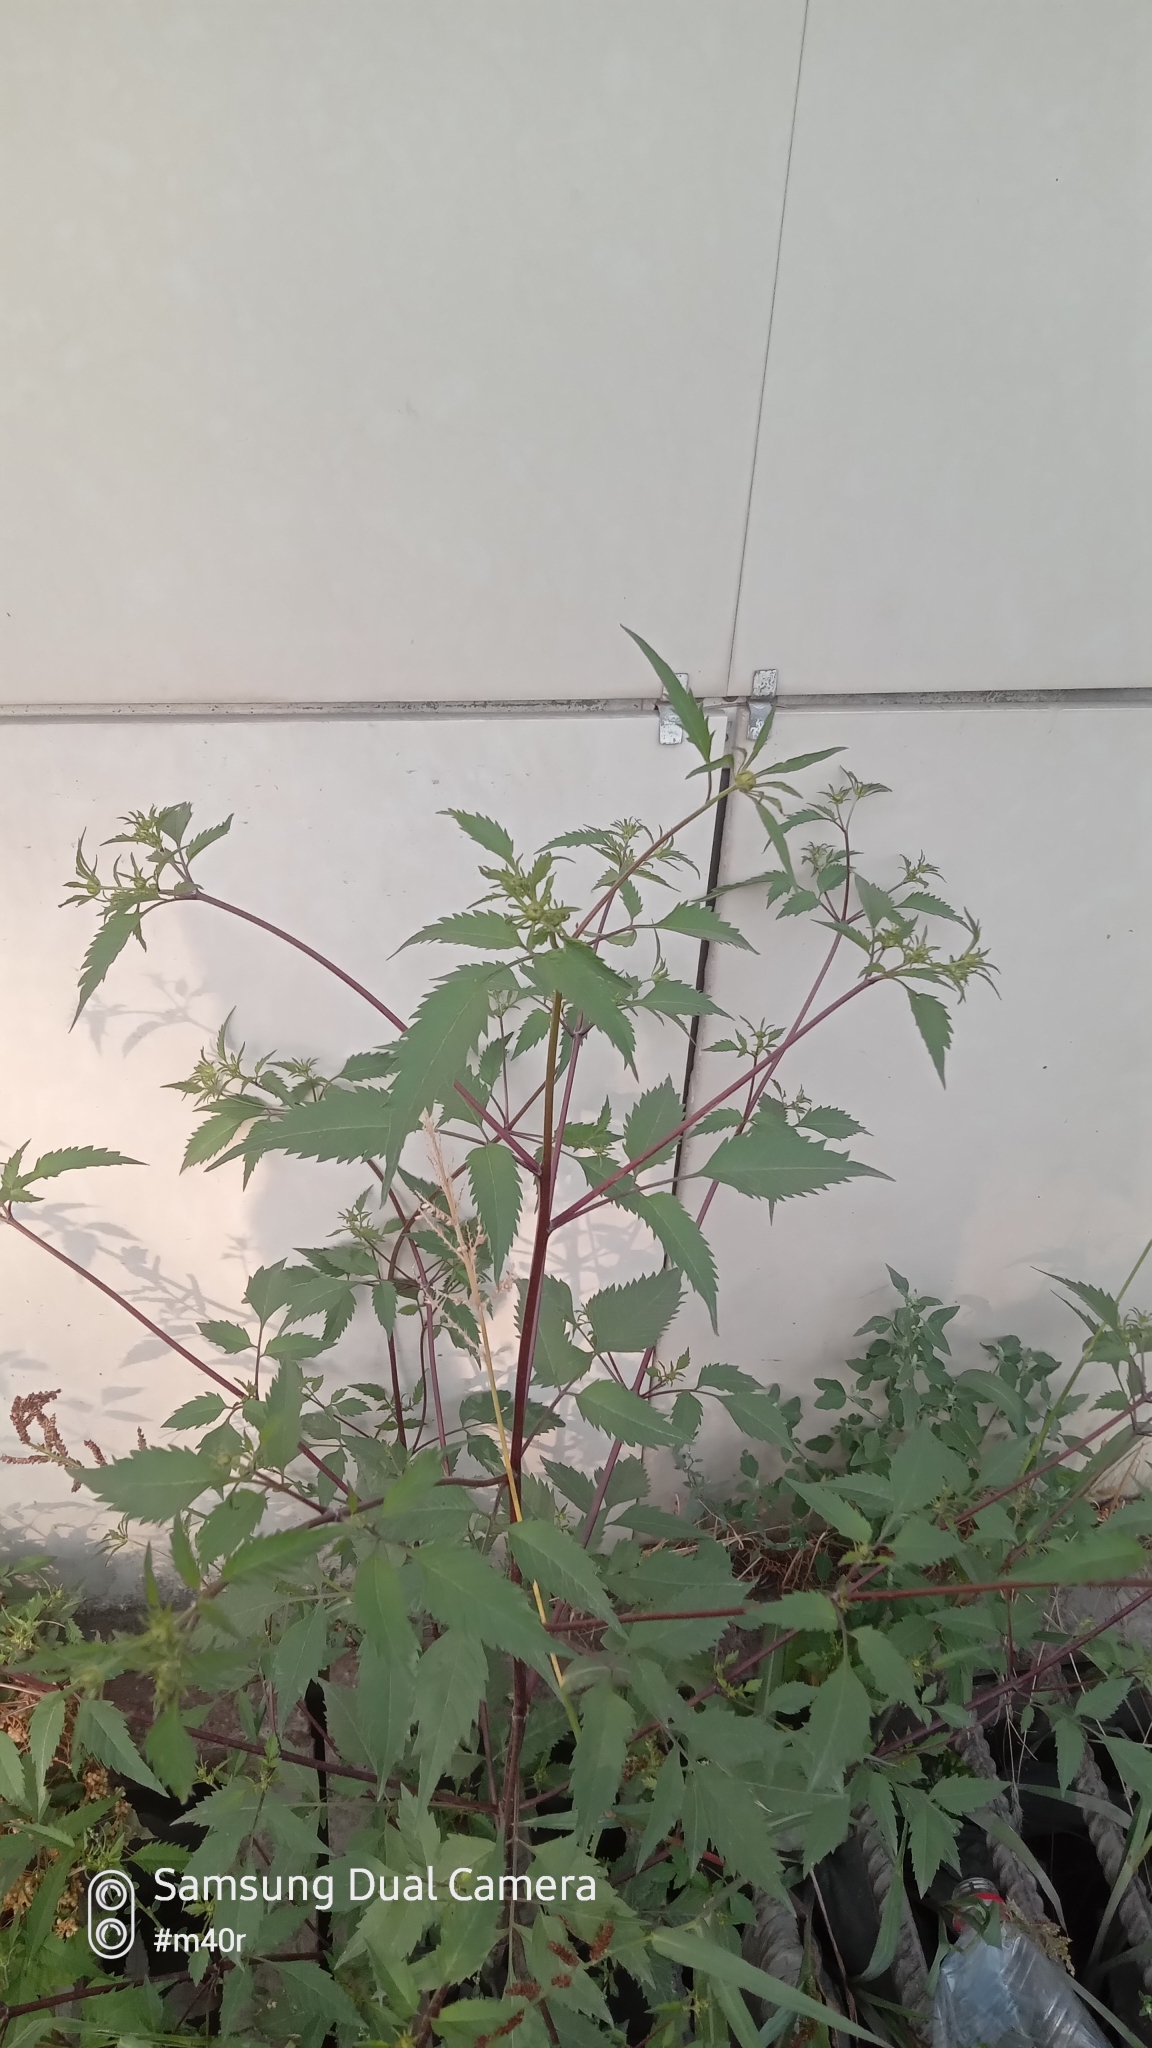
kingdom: Plantae
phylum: Tracheophyta
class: Magnoliopsida
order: Asterales
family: Asteraceae
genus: Bidens
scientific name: Bidens tripartita
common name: Trifid bur-marigold
